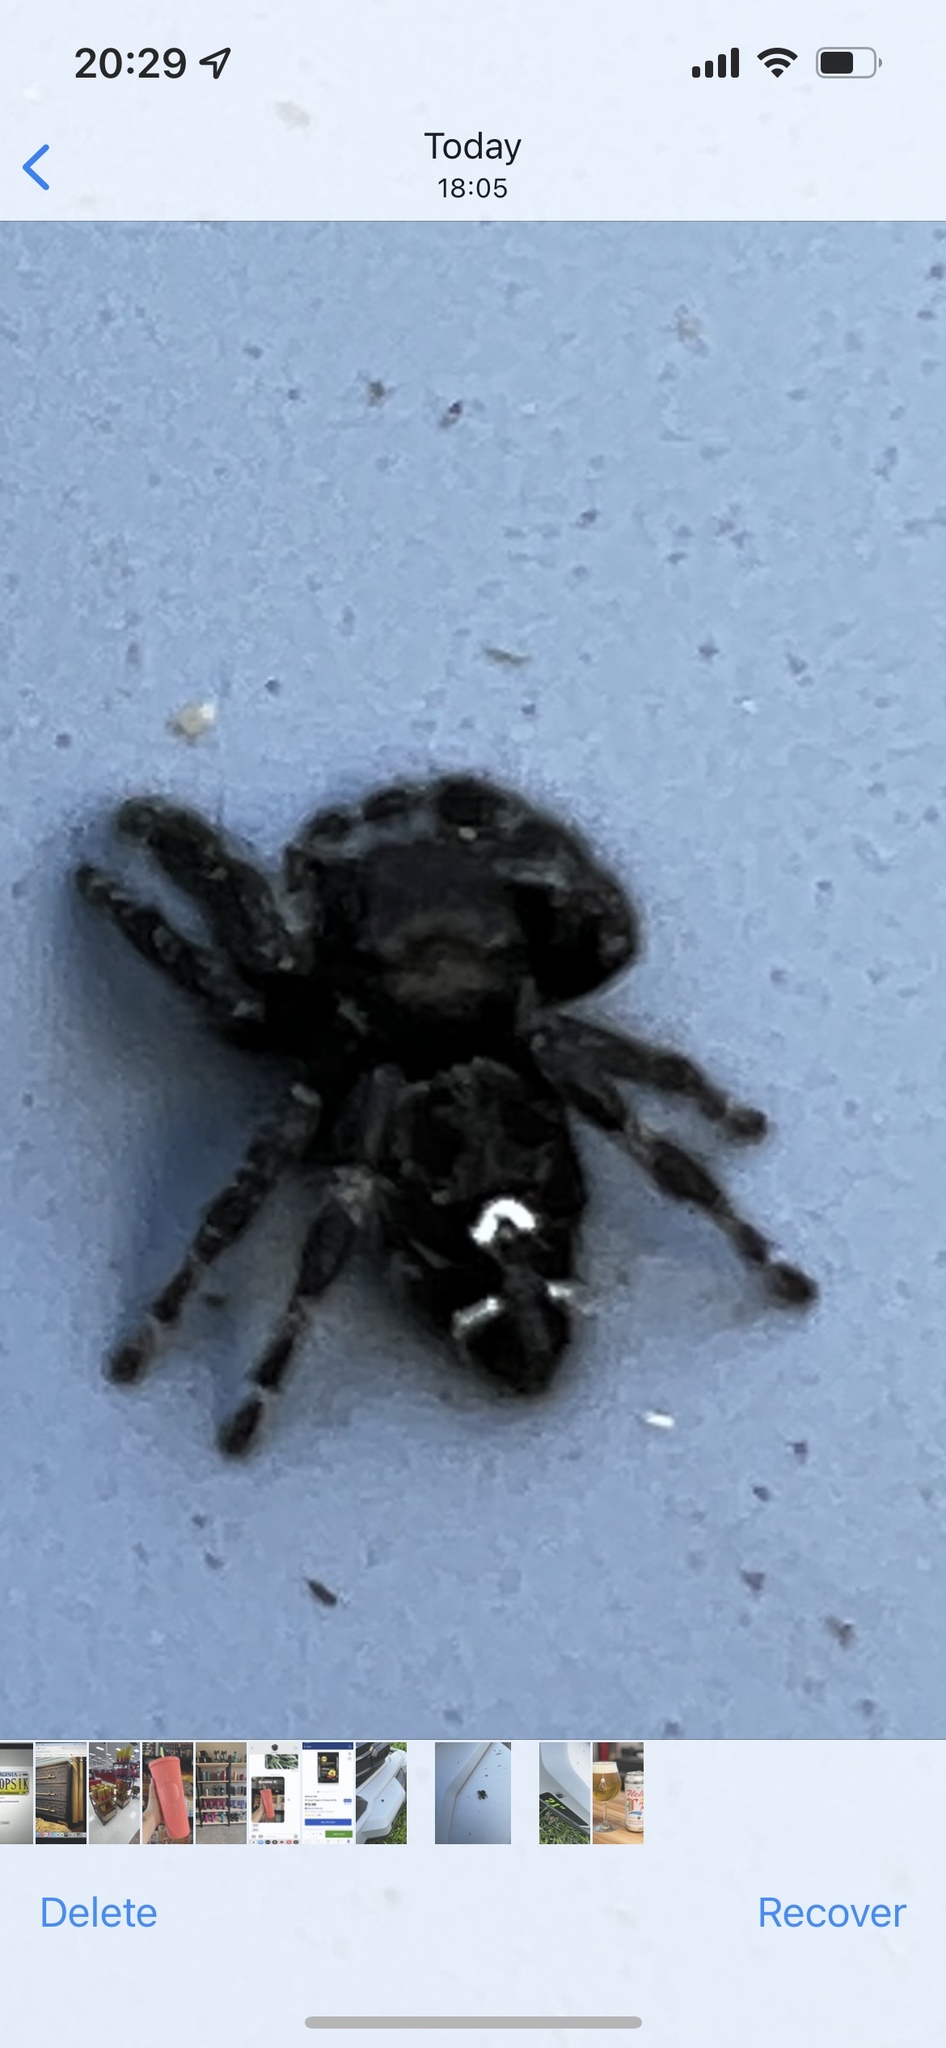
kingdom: Animalia
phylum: Arthropoda
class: Arachnida
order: Araneae
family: Salticidae
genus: Phidippus
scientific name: Phidippus audax
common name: Bold jumper
